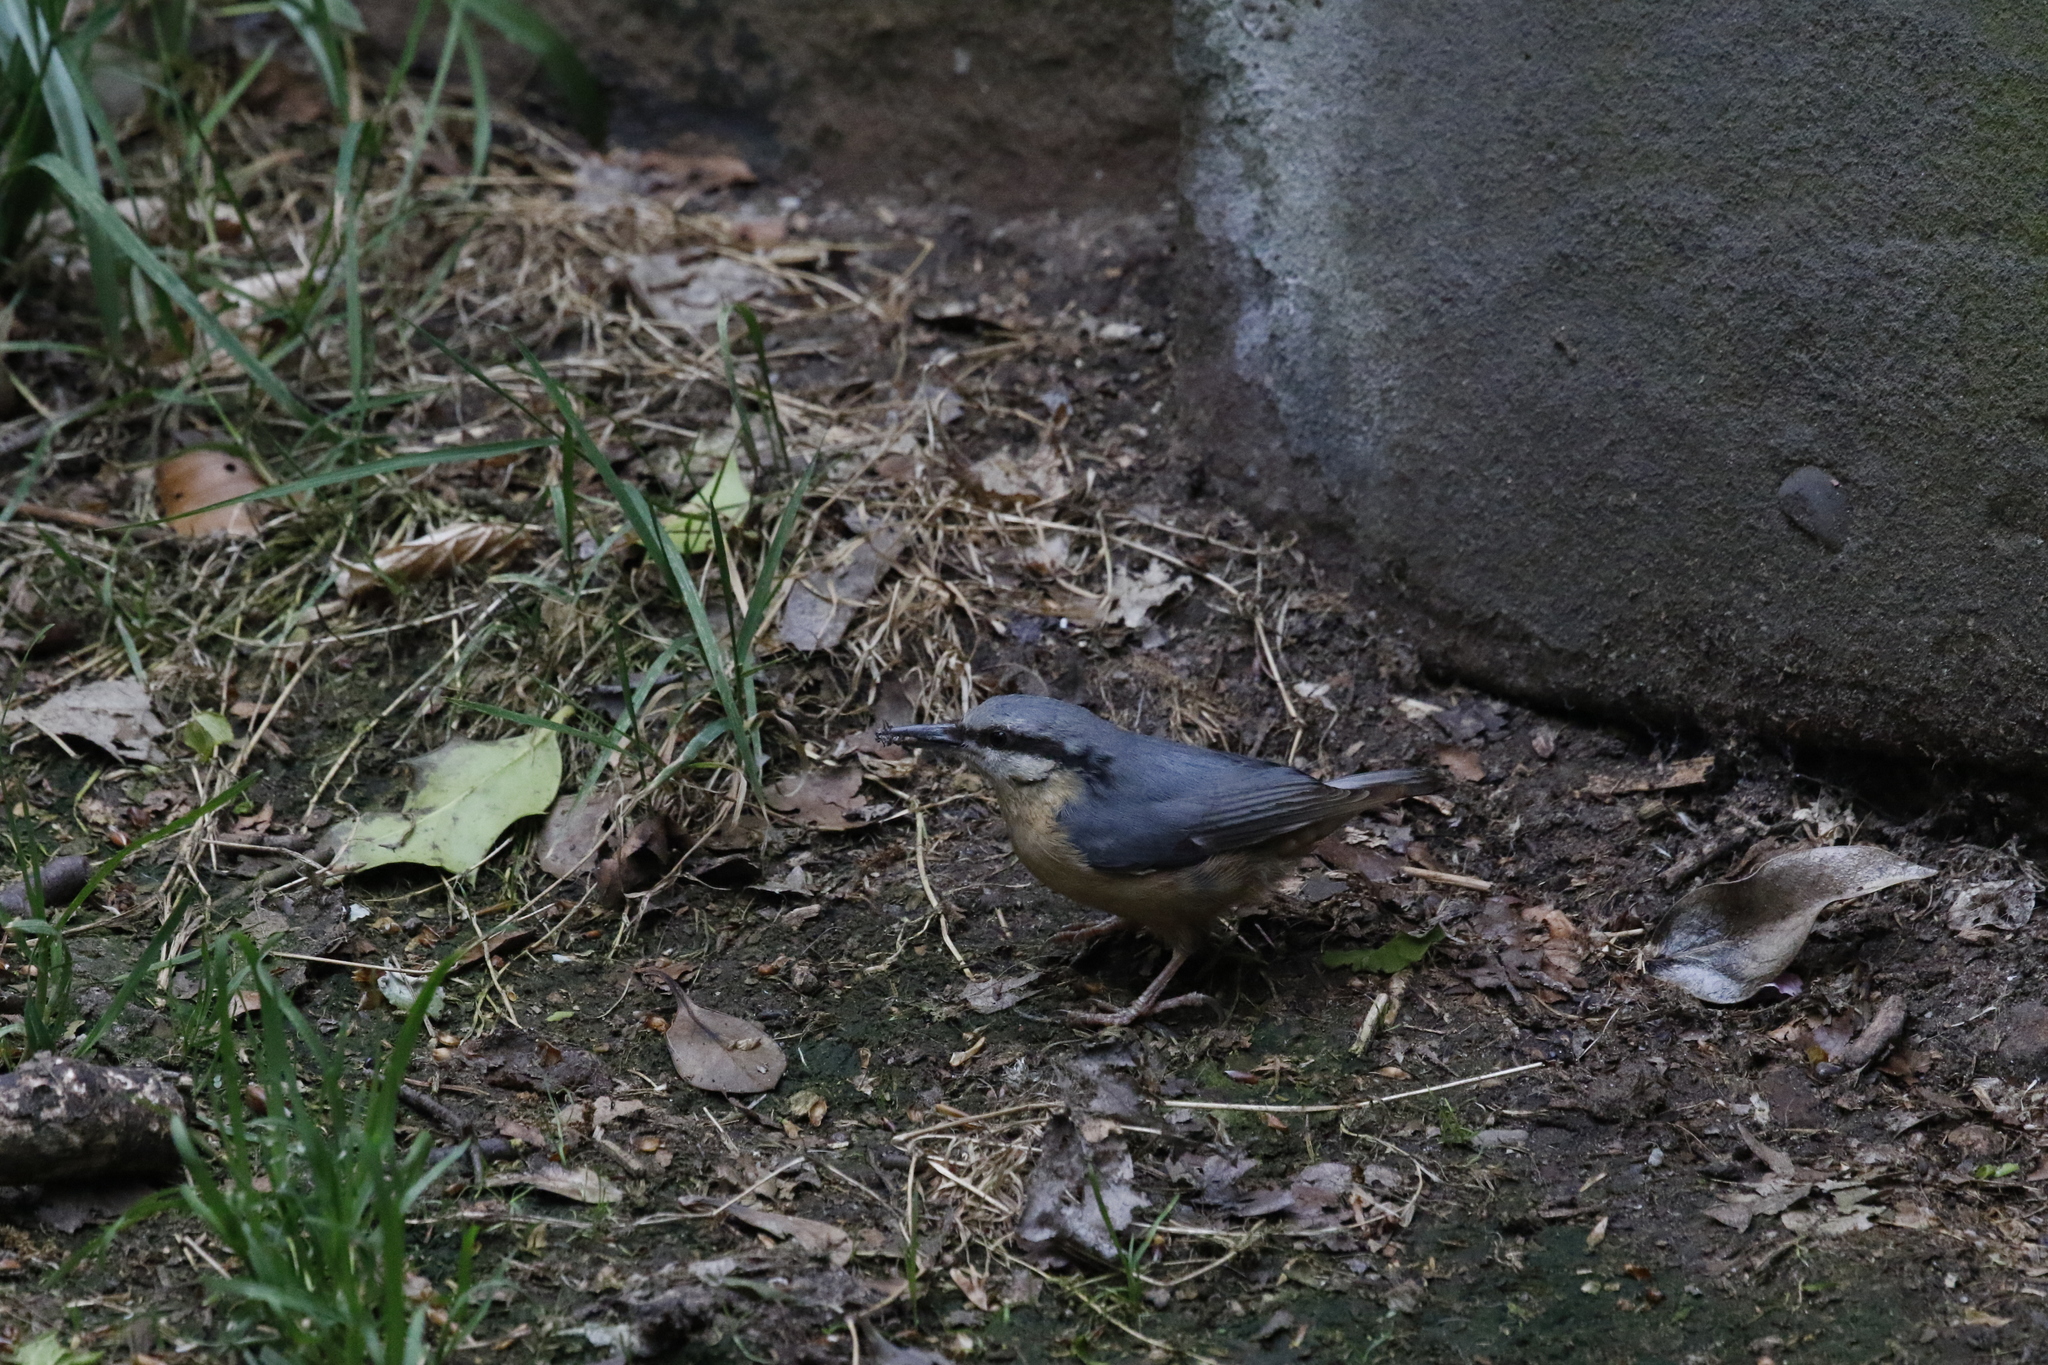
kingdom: Animalia
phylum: Chordata
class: Aves
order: Passeriformes
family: Sittidae
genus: Sitta
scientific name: Sitta europaea
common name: Eurasian nuthatch
